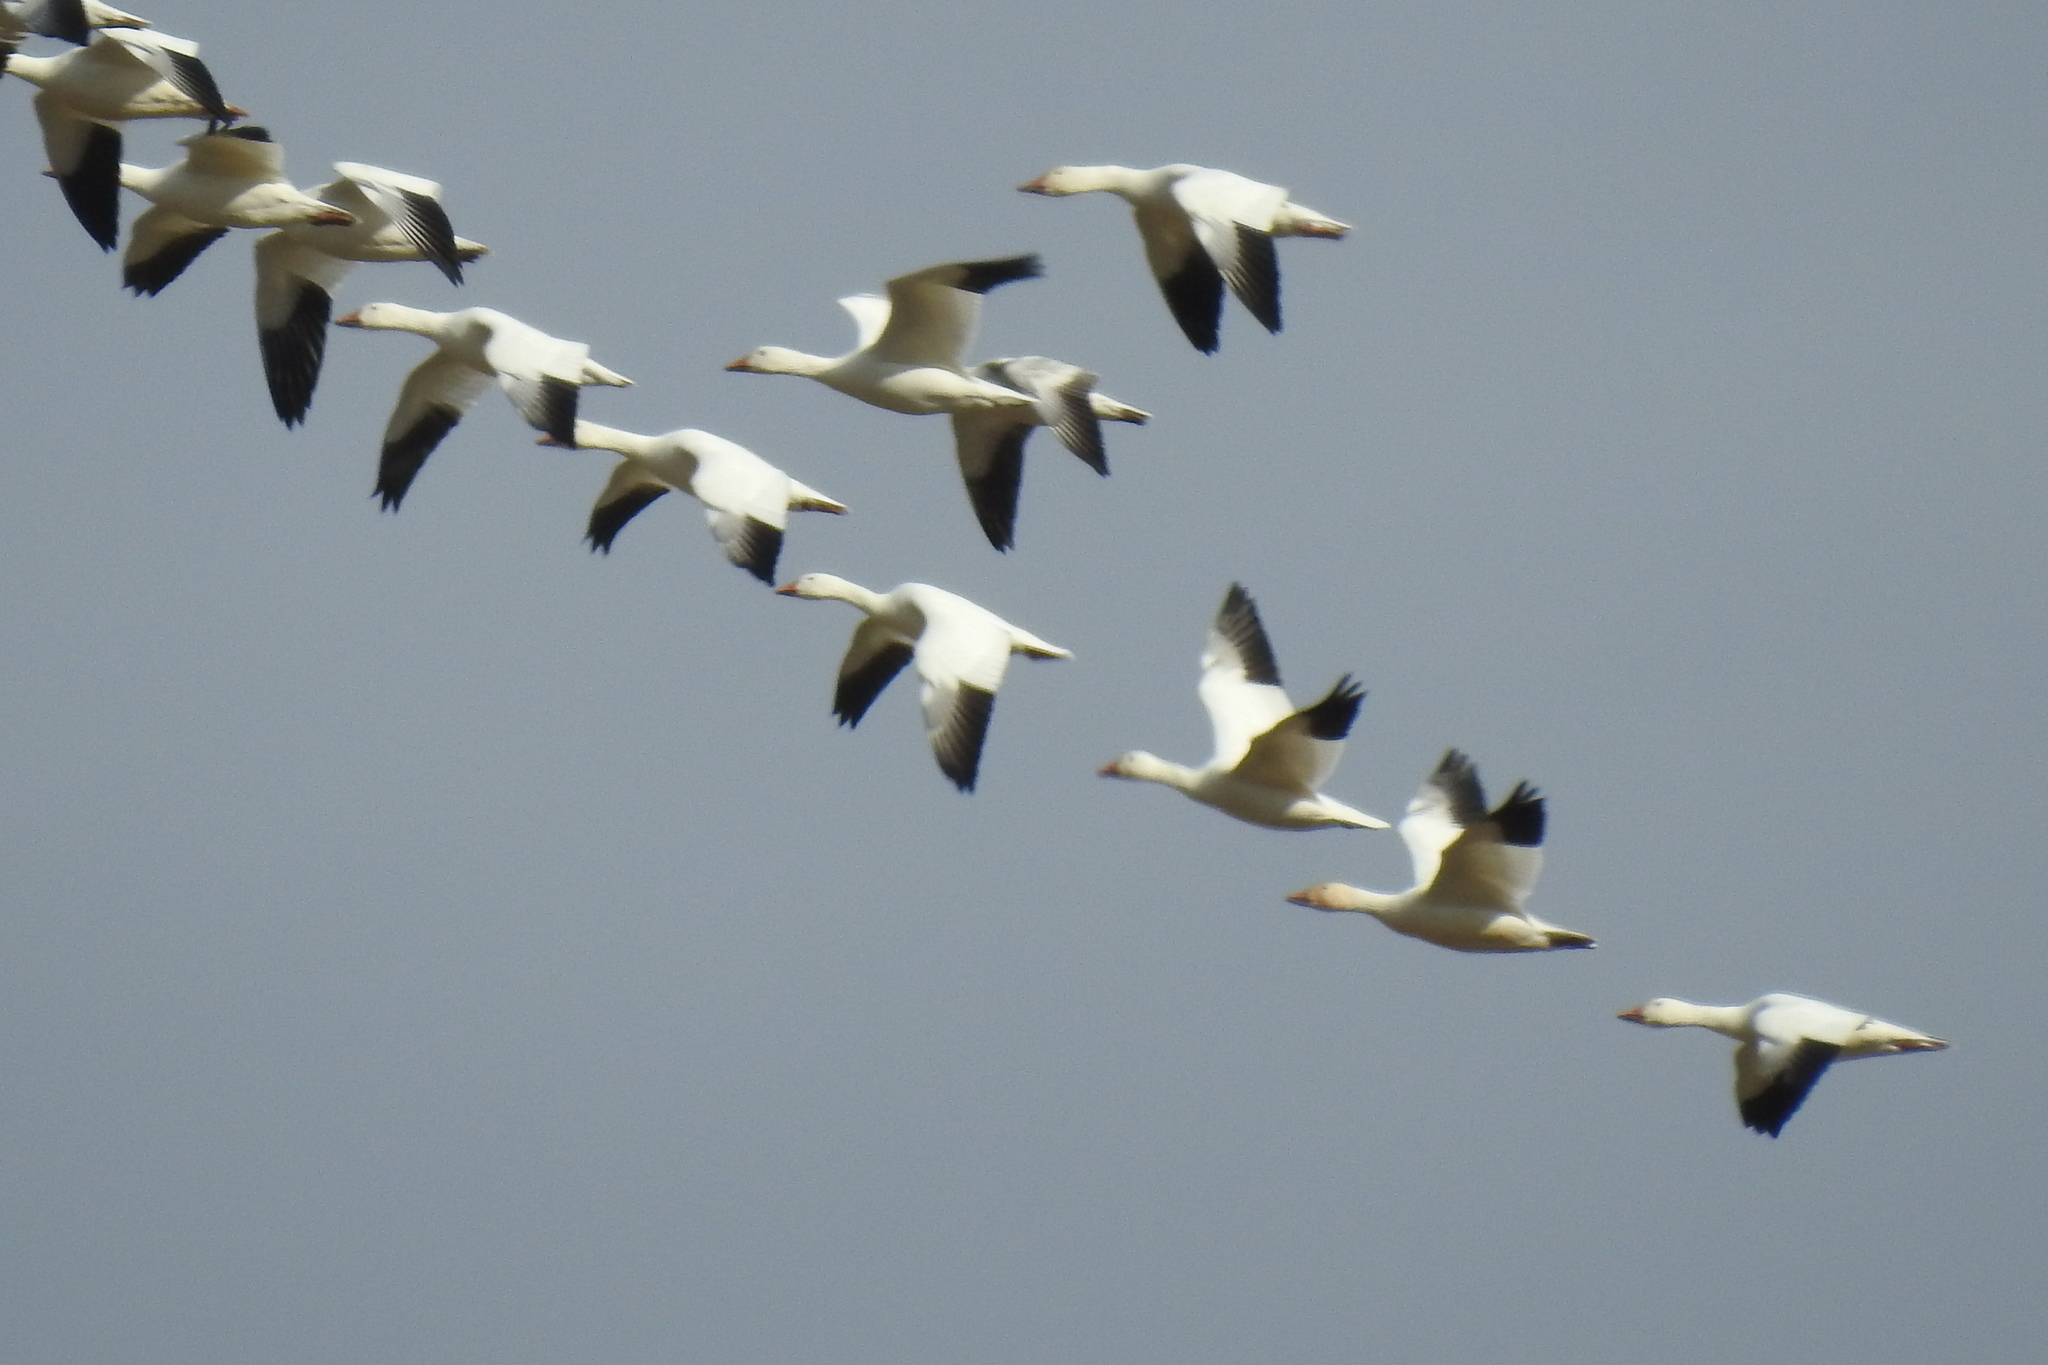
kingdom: Animalia
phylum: Chordata
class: Aves
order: Anseriformes
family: Anatidae
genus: Anser
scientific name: Anser caerulescens
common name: Snow goose
